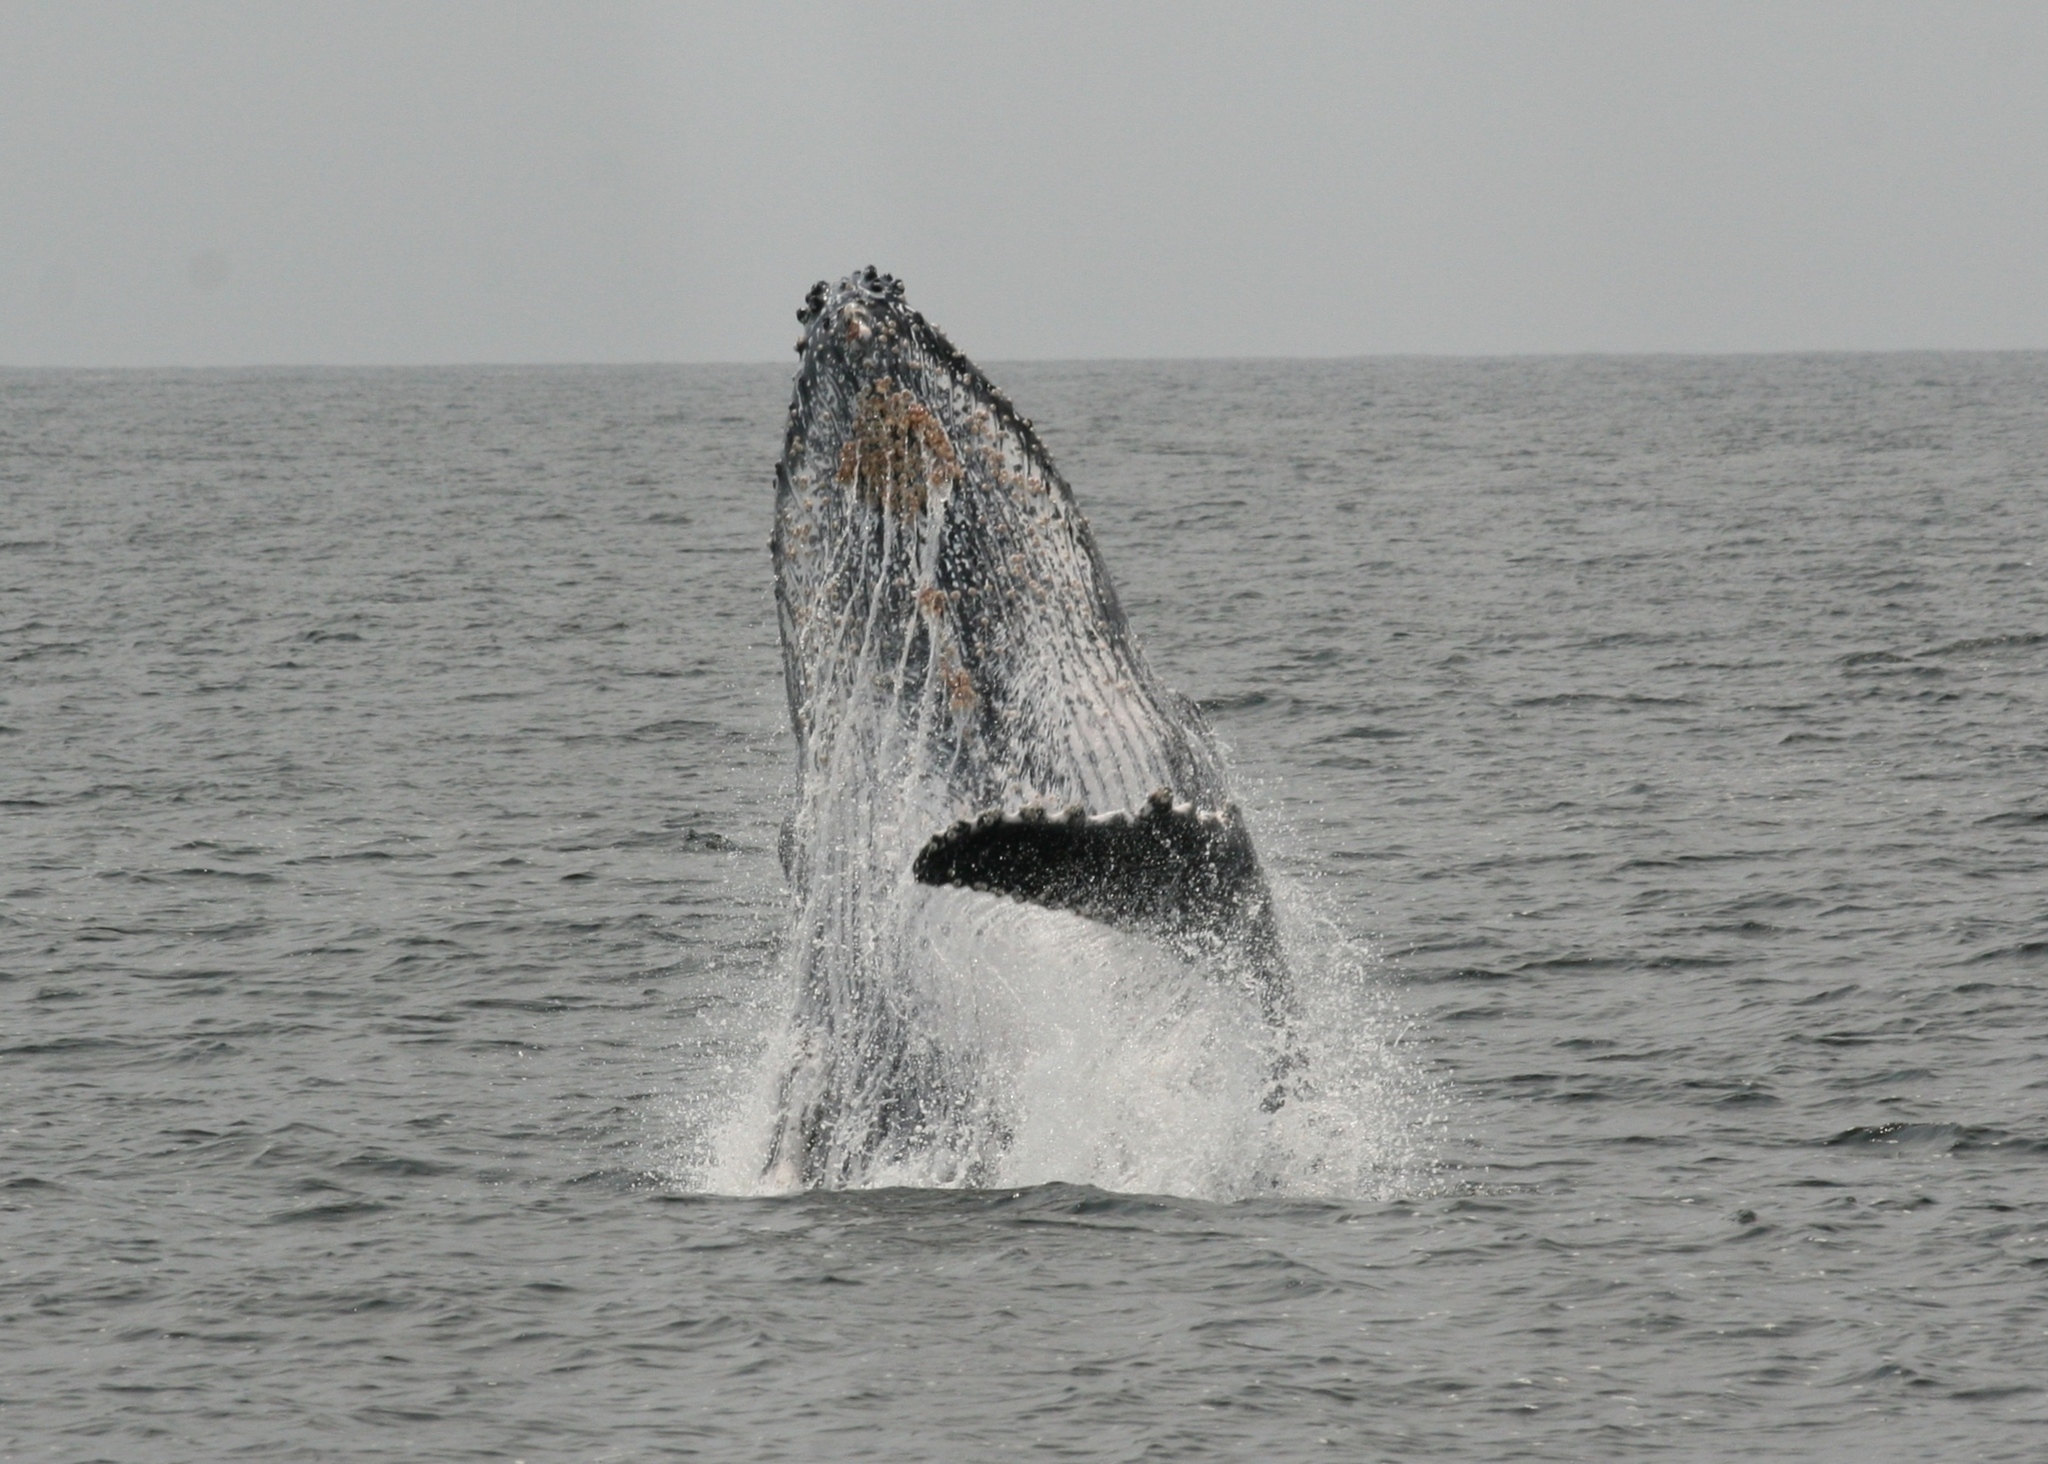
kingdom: Animalia
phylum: Chordata
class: Mammalia
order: Cetacea
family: Balaenopteridae
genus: Megaptera
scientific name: Megaptera novaeangliae
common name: Humpback whale
